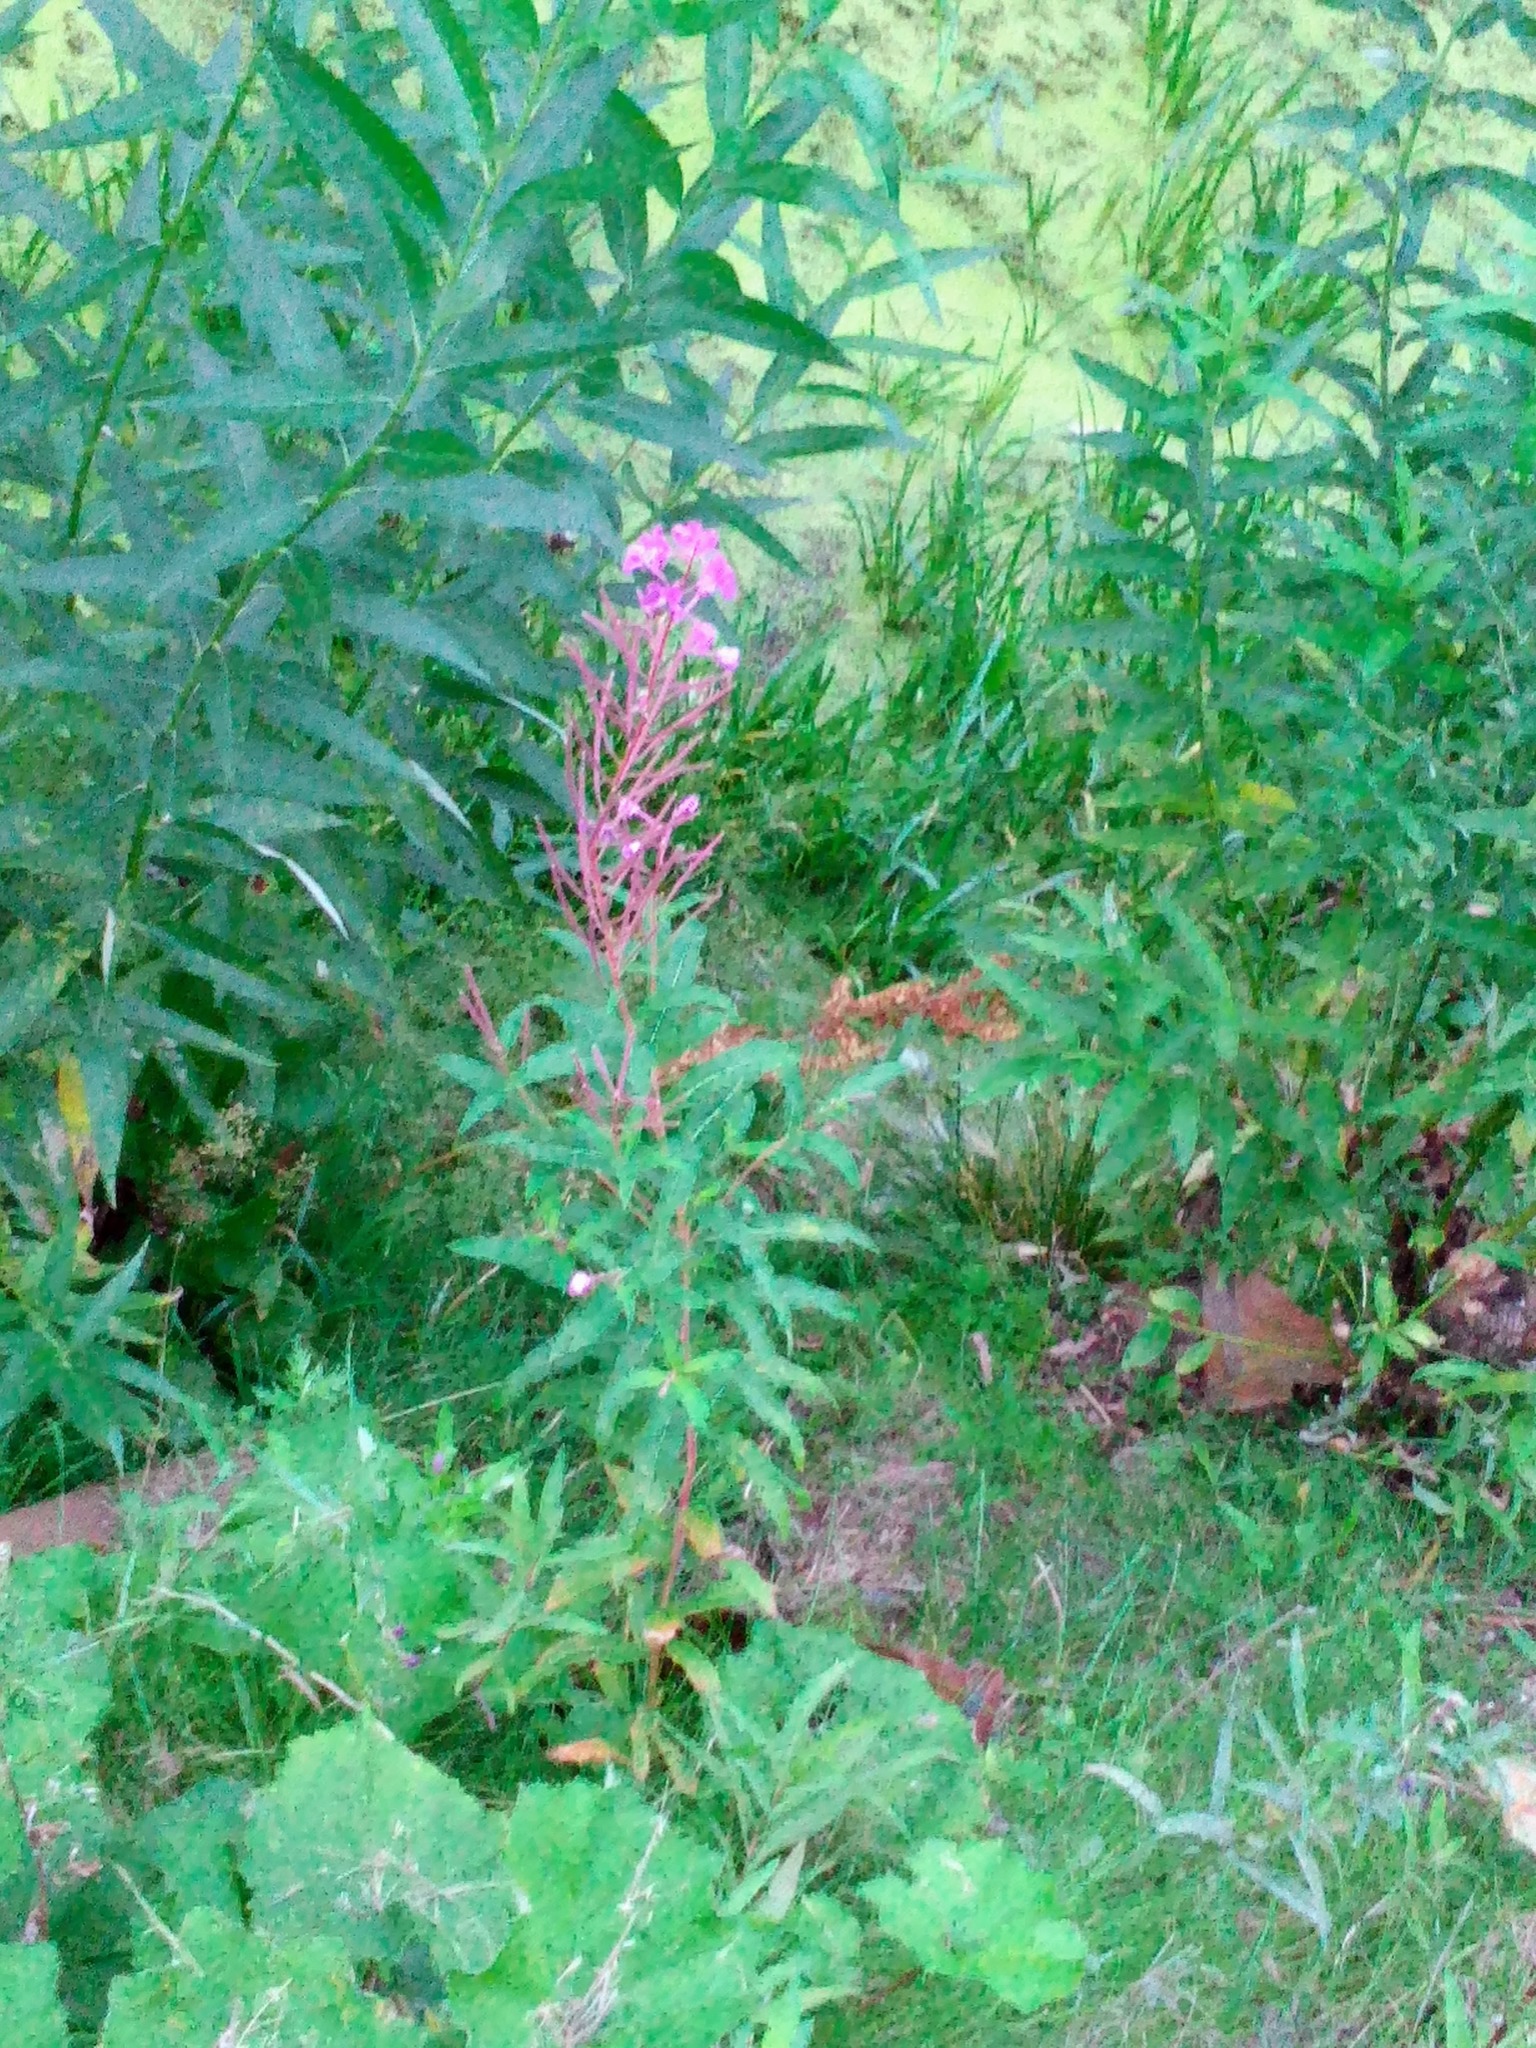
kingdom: Plantae
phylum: Tracheophyta
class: Magnoliopsida
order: Myrtales
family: Onagraceae
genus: Chamaenerion
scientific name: Chamaenerion angustifolium
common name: Fireweed
